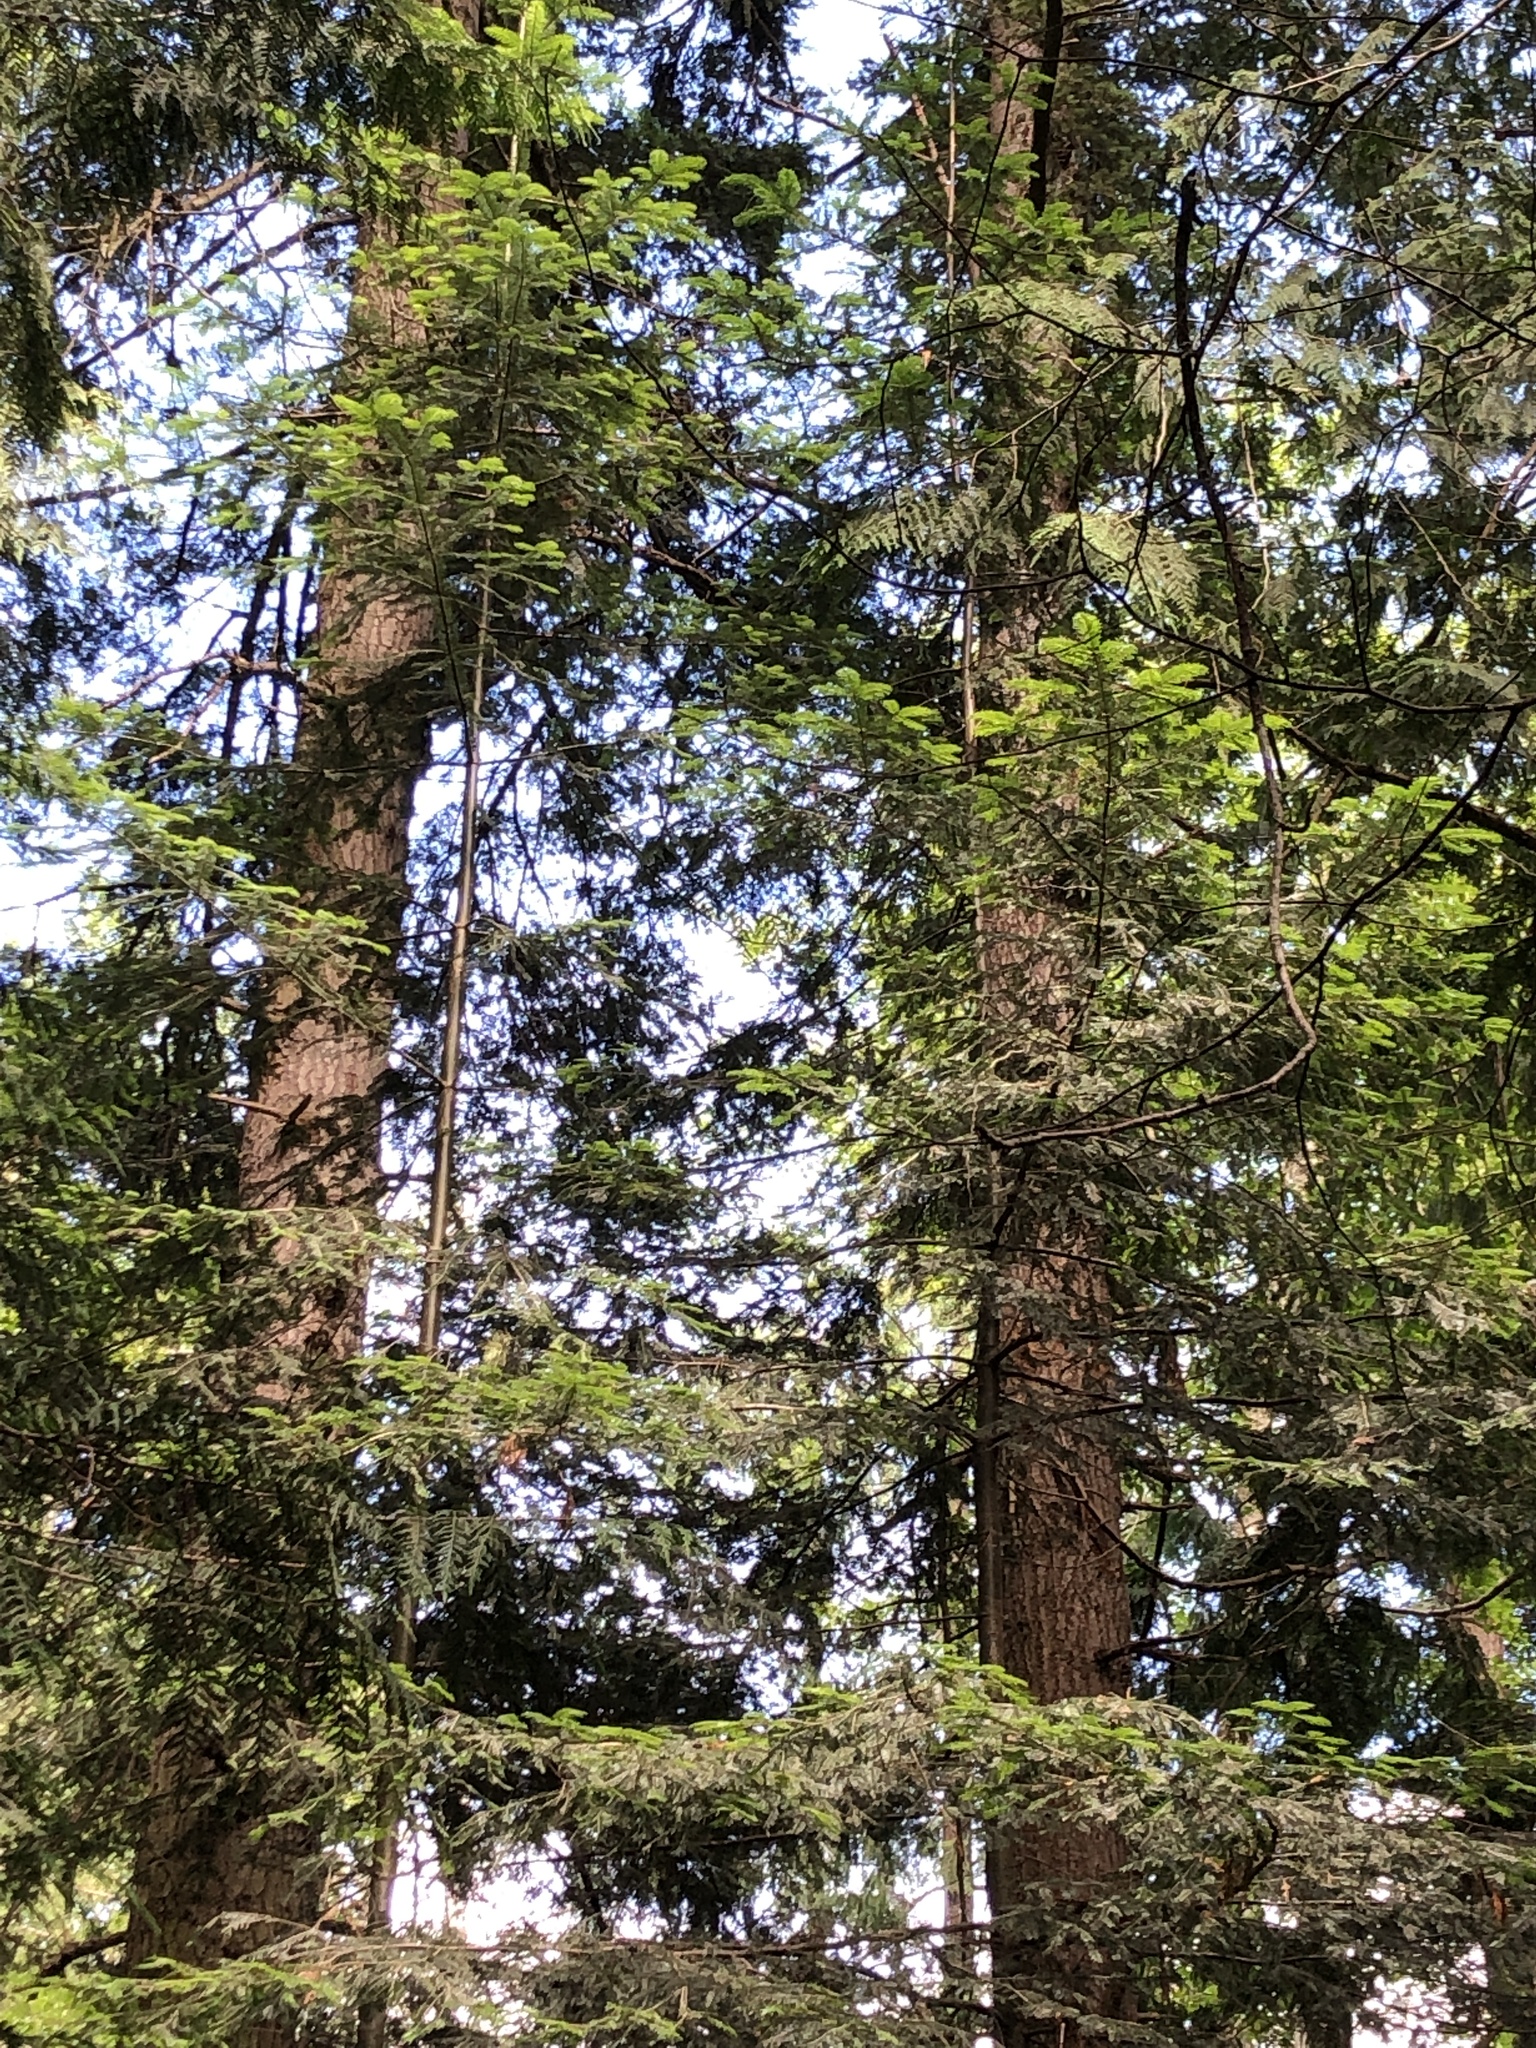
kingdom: Plantae
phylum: Tracheophyta
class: Pinopsida
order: Pinales
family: Pinaceae
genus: Abies
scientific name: Abies grandis
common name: Giant fir
